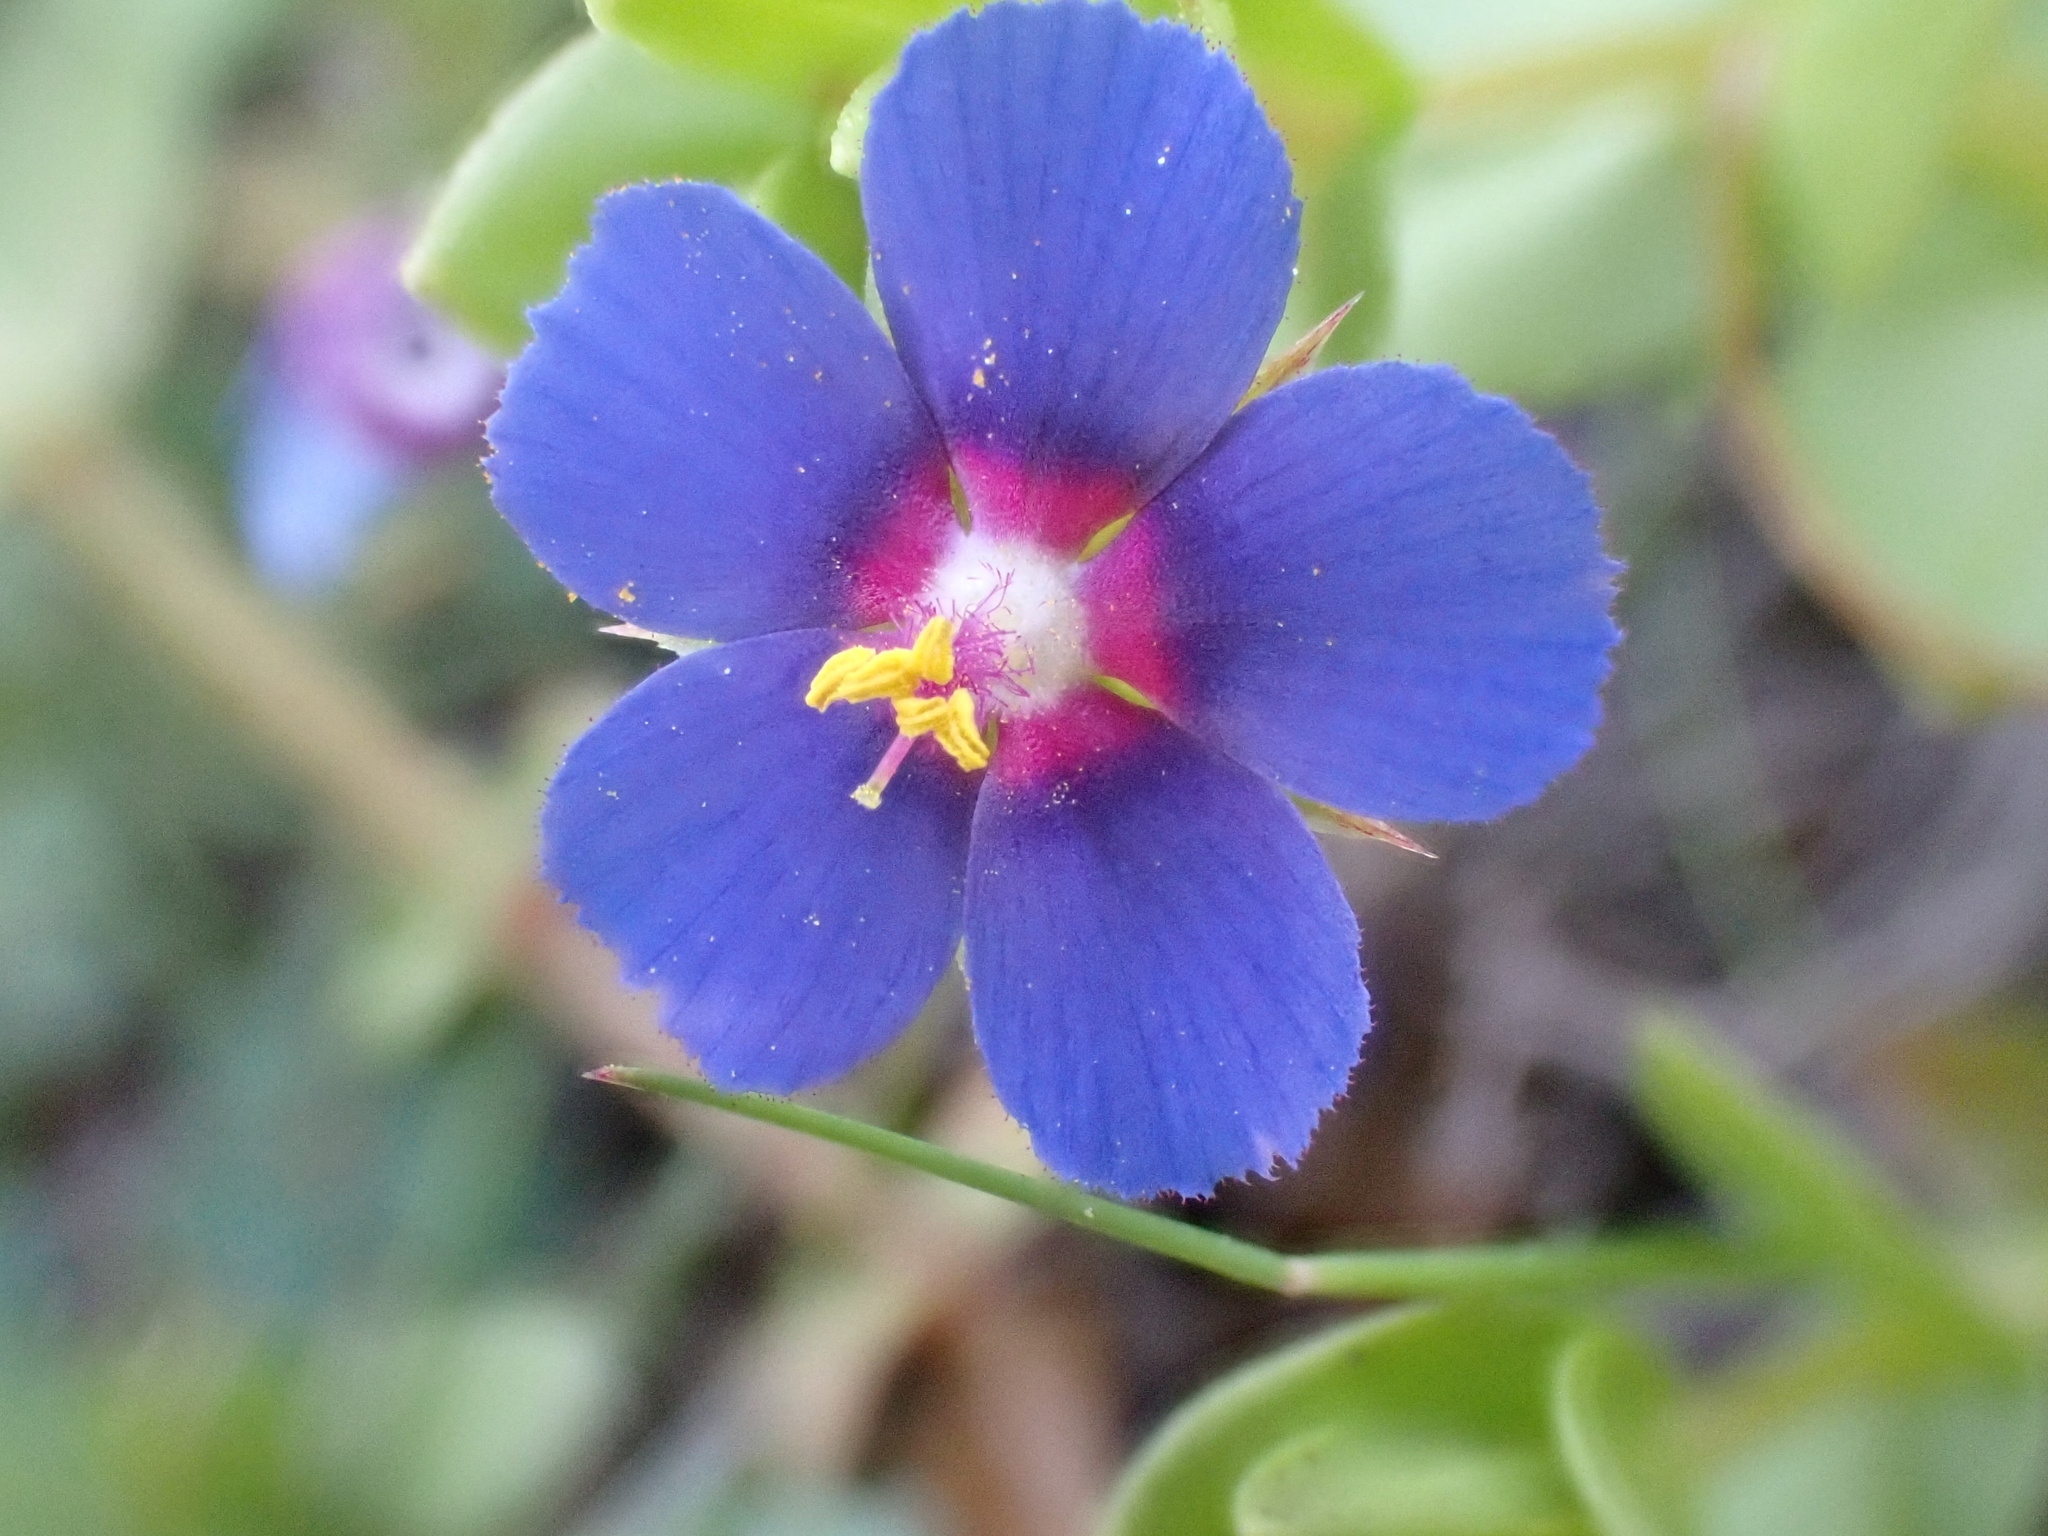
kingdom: Plantae
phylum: Tracheophyta
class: Magnoliopsida
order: Ericales
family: Primulaceae
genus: Lysimachia
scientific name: Lysimachia loeflingii
